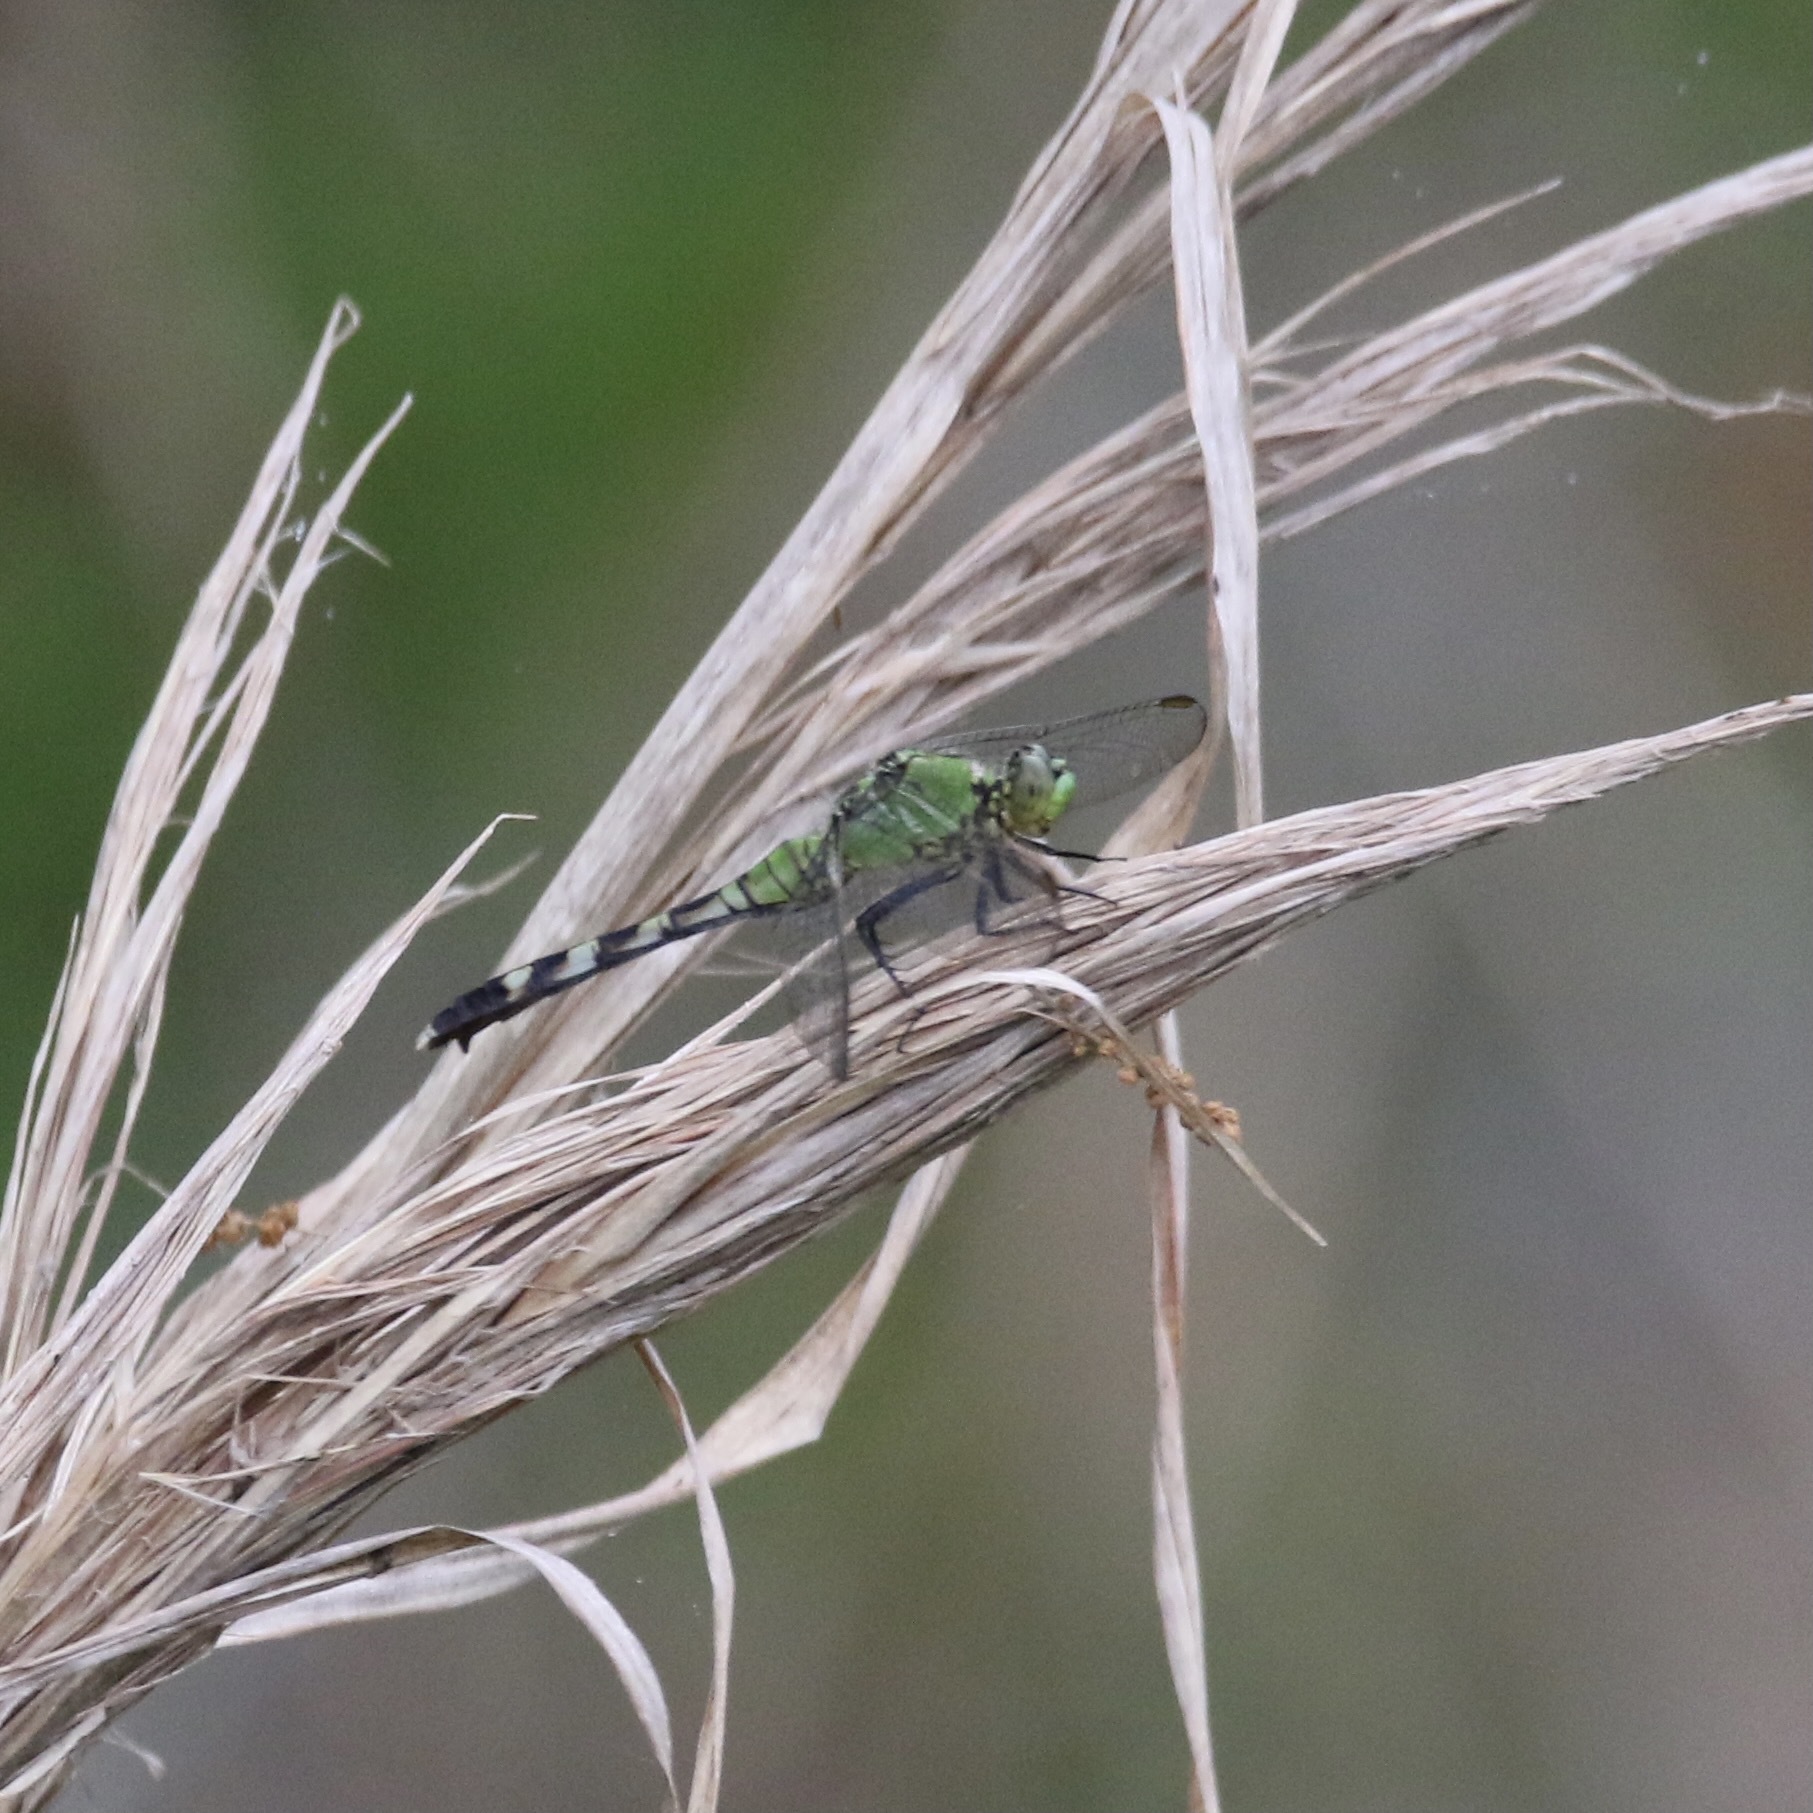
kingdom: Animalia
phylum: Arthropoda
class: Insecta
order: Odonata
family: Libellulidae
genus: Erythemis
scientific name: Erythemis simplicicollis
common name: Eastern pondhawk
